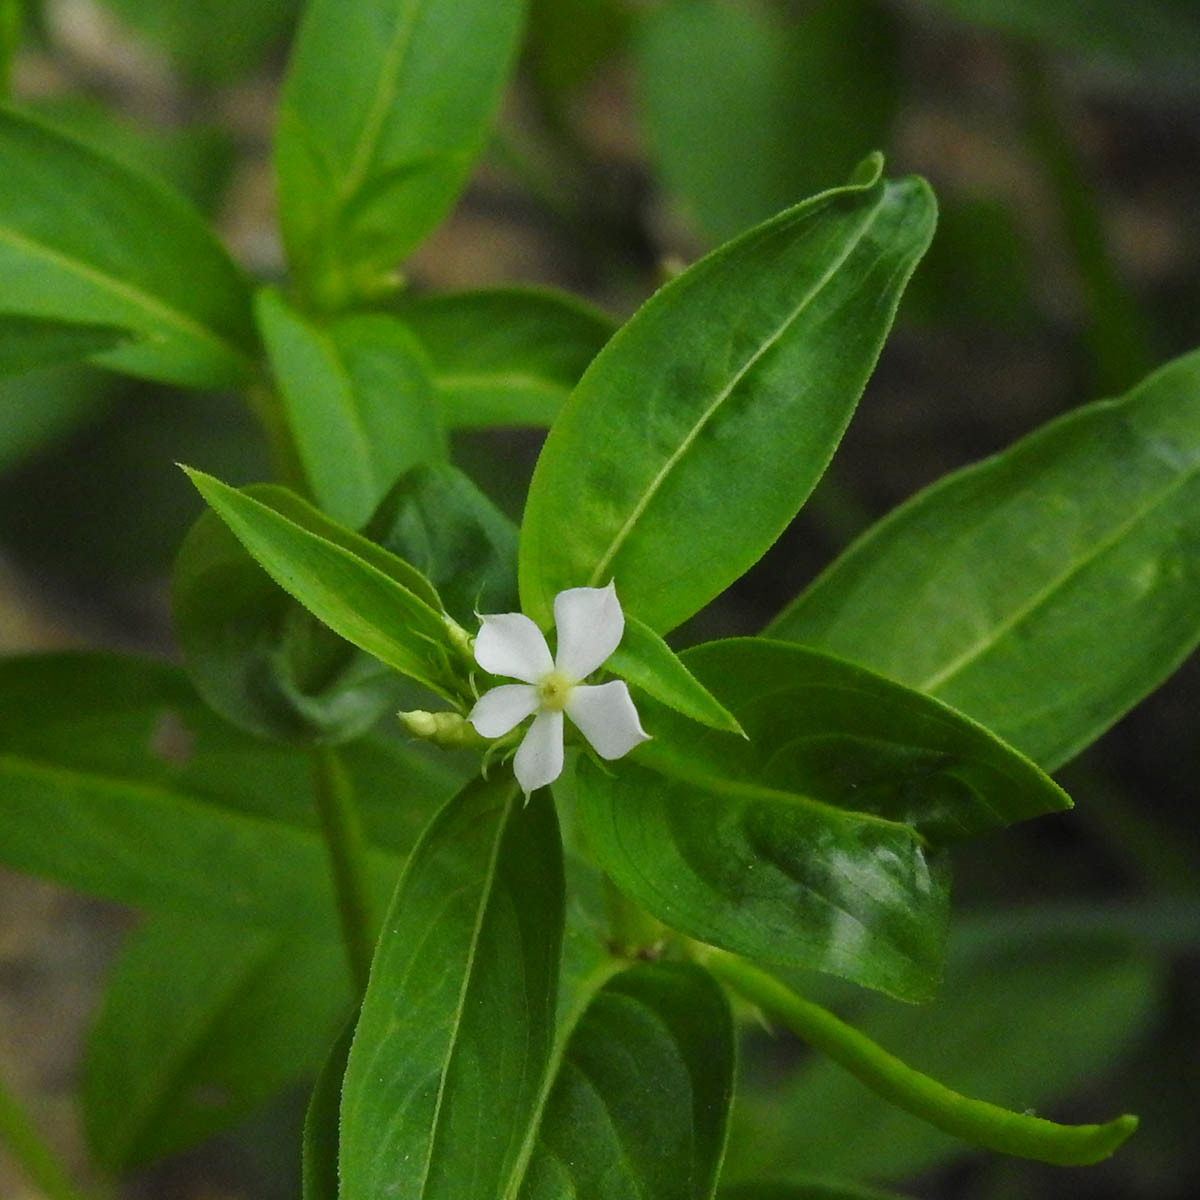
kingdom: Plantae
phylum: Tracheophyta
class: Magnoliopsida
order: Gentianales
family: Apocynaceae
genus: Catharanthus
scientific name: Catharanthus pusillus
